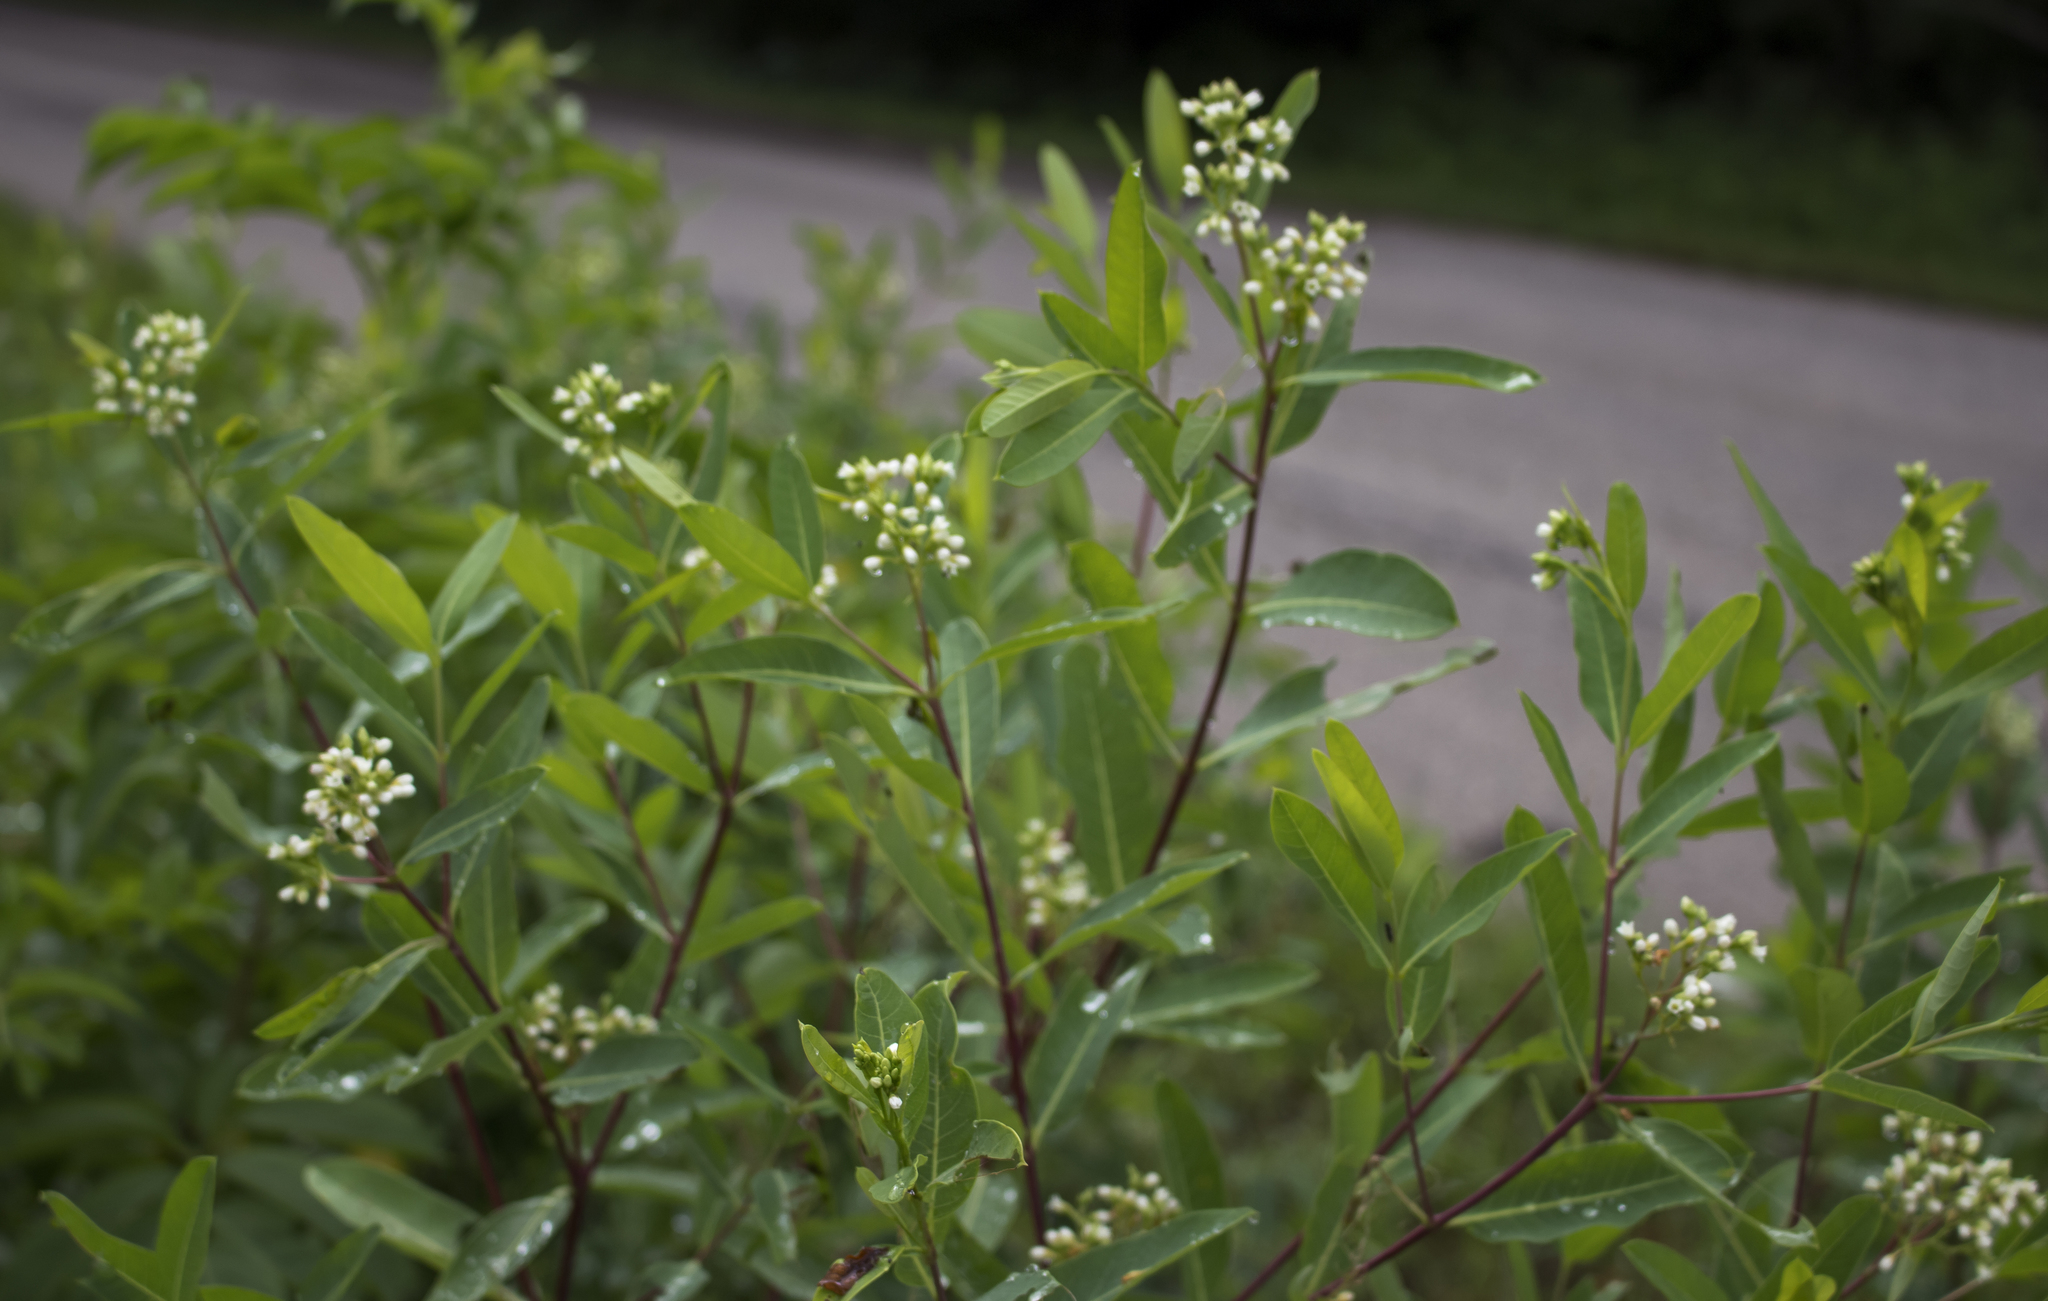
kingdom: Plantae
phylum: Tracheophyta
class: Magnoliopsida
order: Gentianales
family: Apocynaceae
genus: Apocynum
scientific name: Apocynum cannabinum
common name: Hemp dogbane
